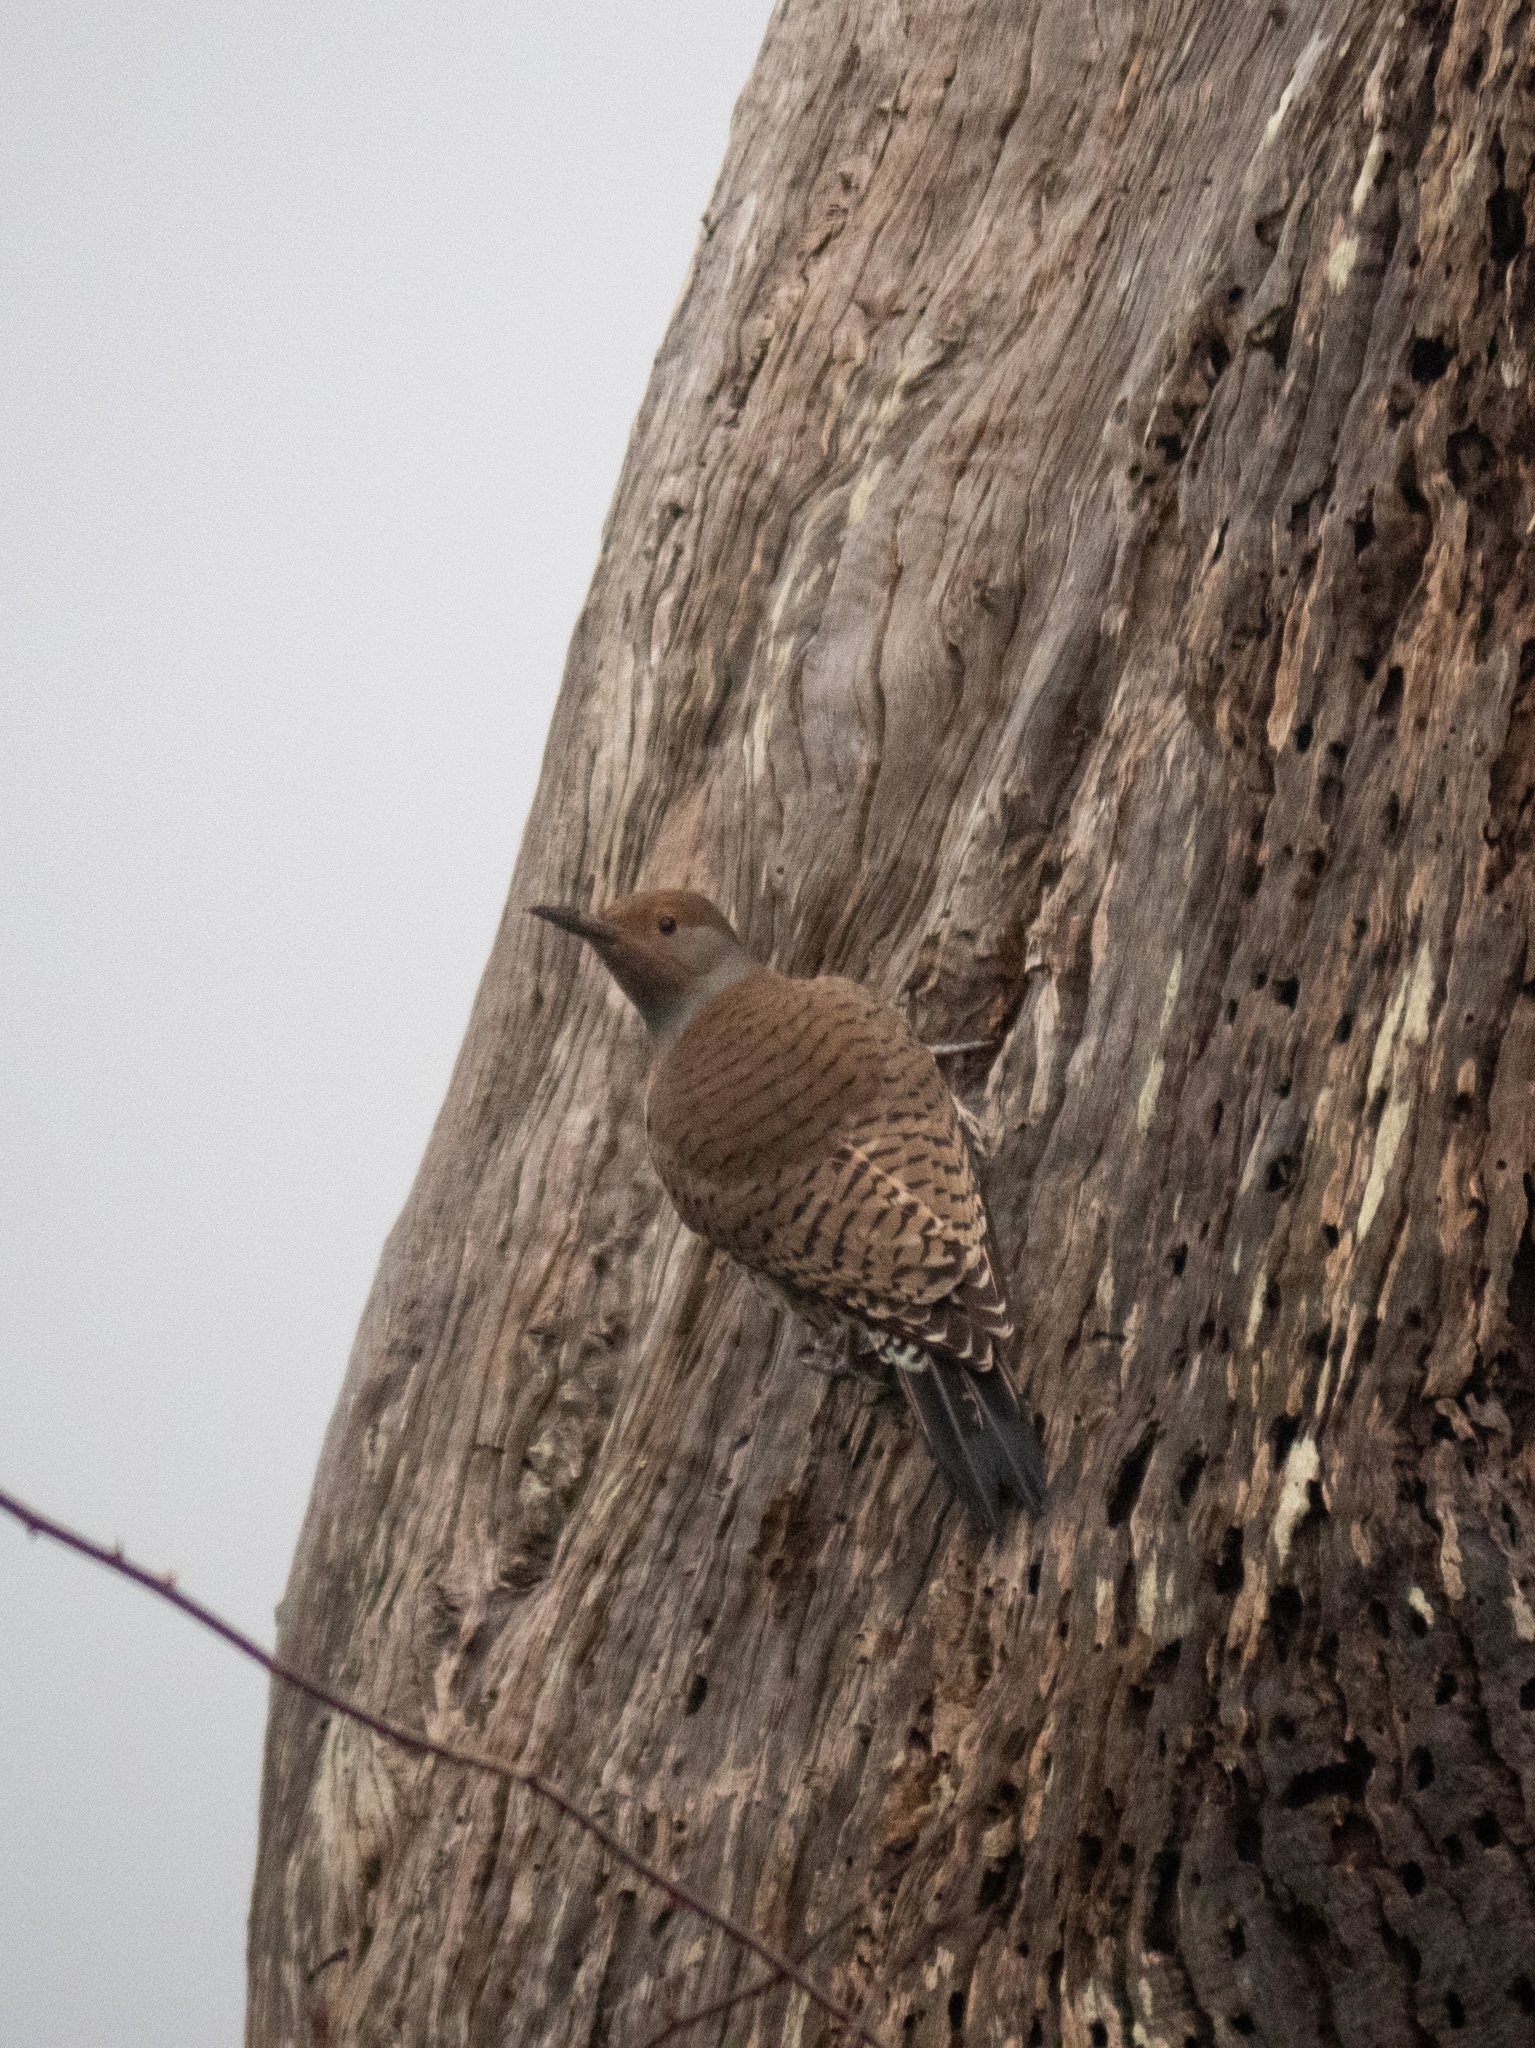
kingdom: Animalia
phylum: Chordata
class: Aves
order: Piciformes
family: Picidae
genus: Colaptes
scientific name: Colaptes auratus
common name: Northern flicker
